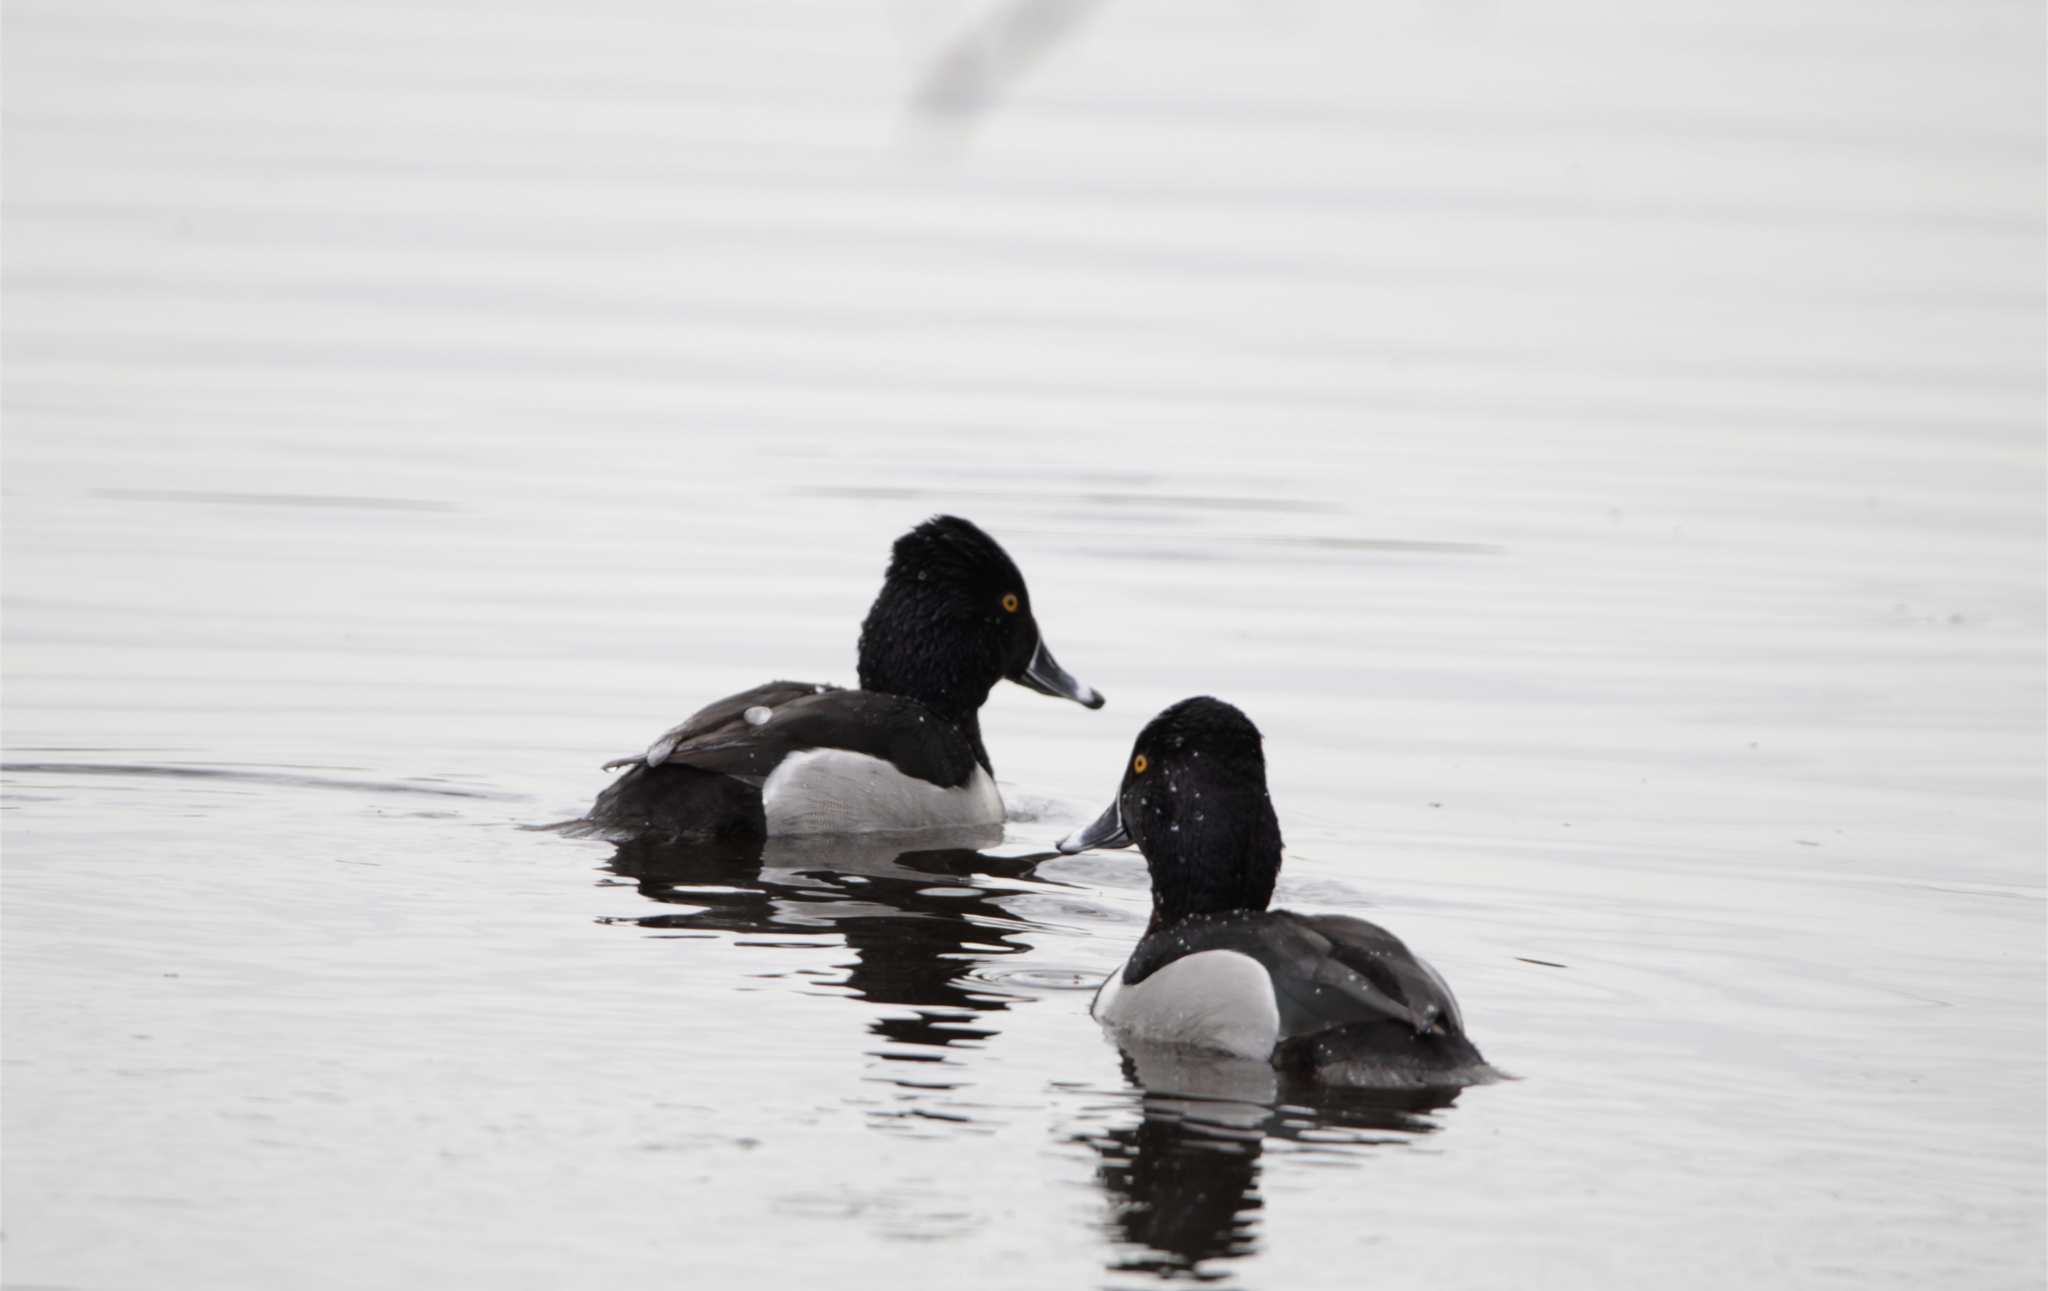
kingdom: Animalia
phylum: Chordata
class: Aves
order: Anseriformes
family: Anatidae
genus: Aythya
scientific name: Aythya collaris
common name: Ring-necked duck
